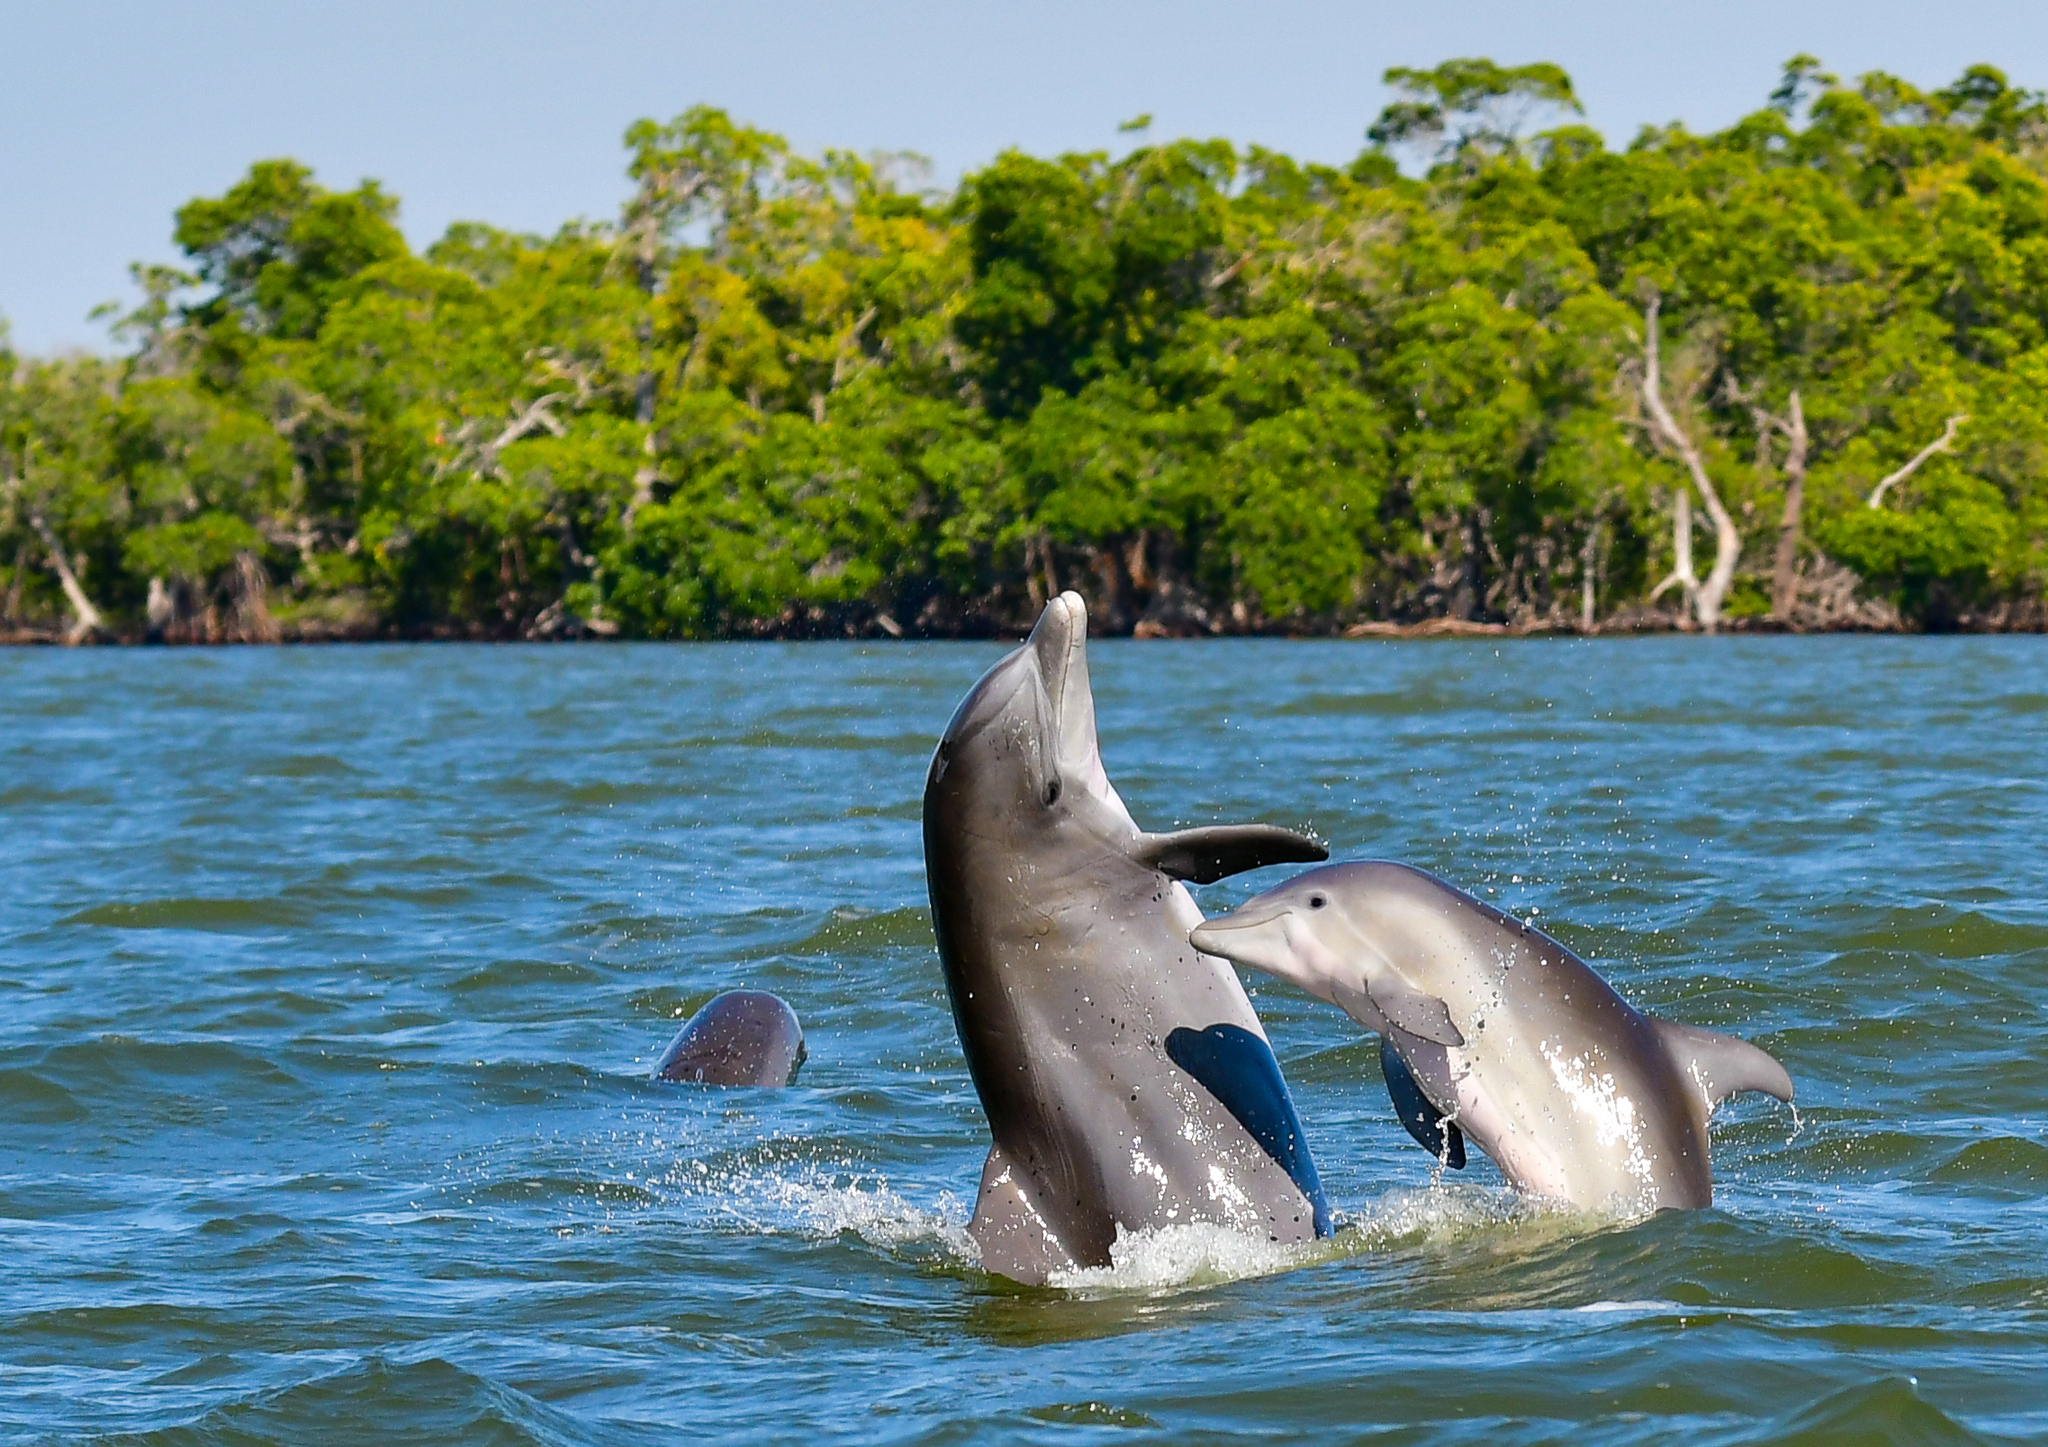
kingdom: Animalia
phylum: Chordata
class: Mammalia
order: Cetacea
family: Delphinidae
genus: Tursiops
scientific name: Tursiops truncatus
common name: Bottlenose dolphin
